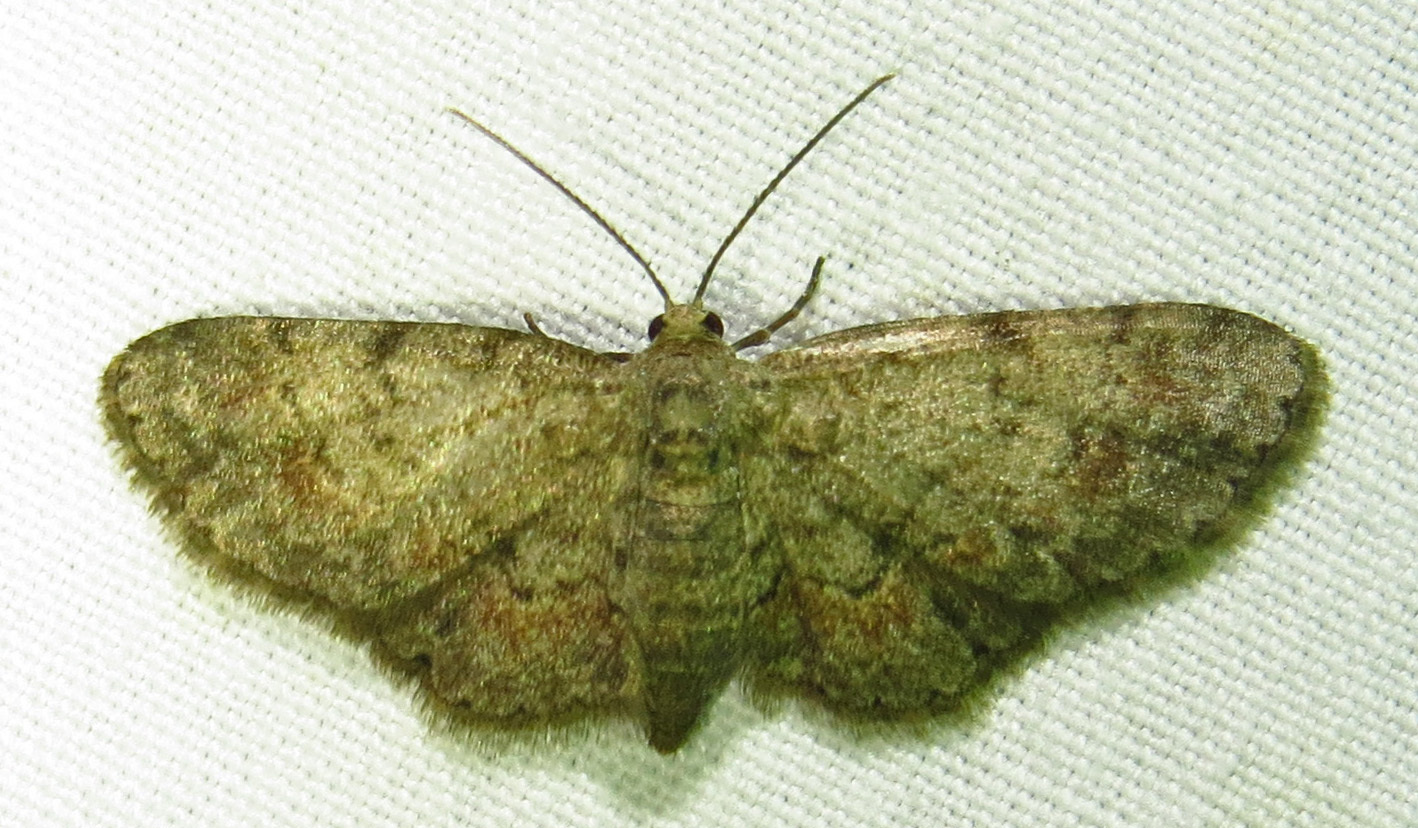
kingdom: Animalia
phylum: Arthropoda
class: Insecta
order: Lepidoptera
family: Geometridae
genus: Glenoides
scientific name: Glenoides texanaria
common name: Texas gray
